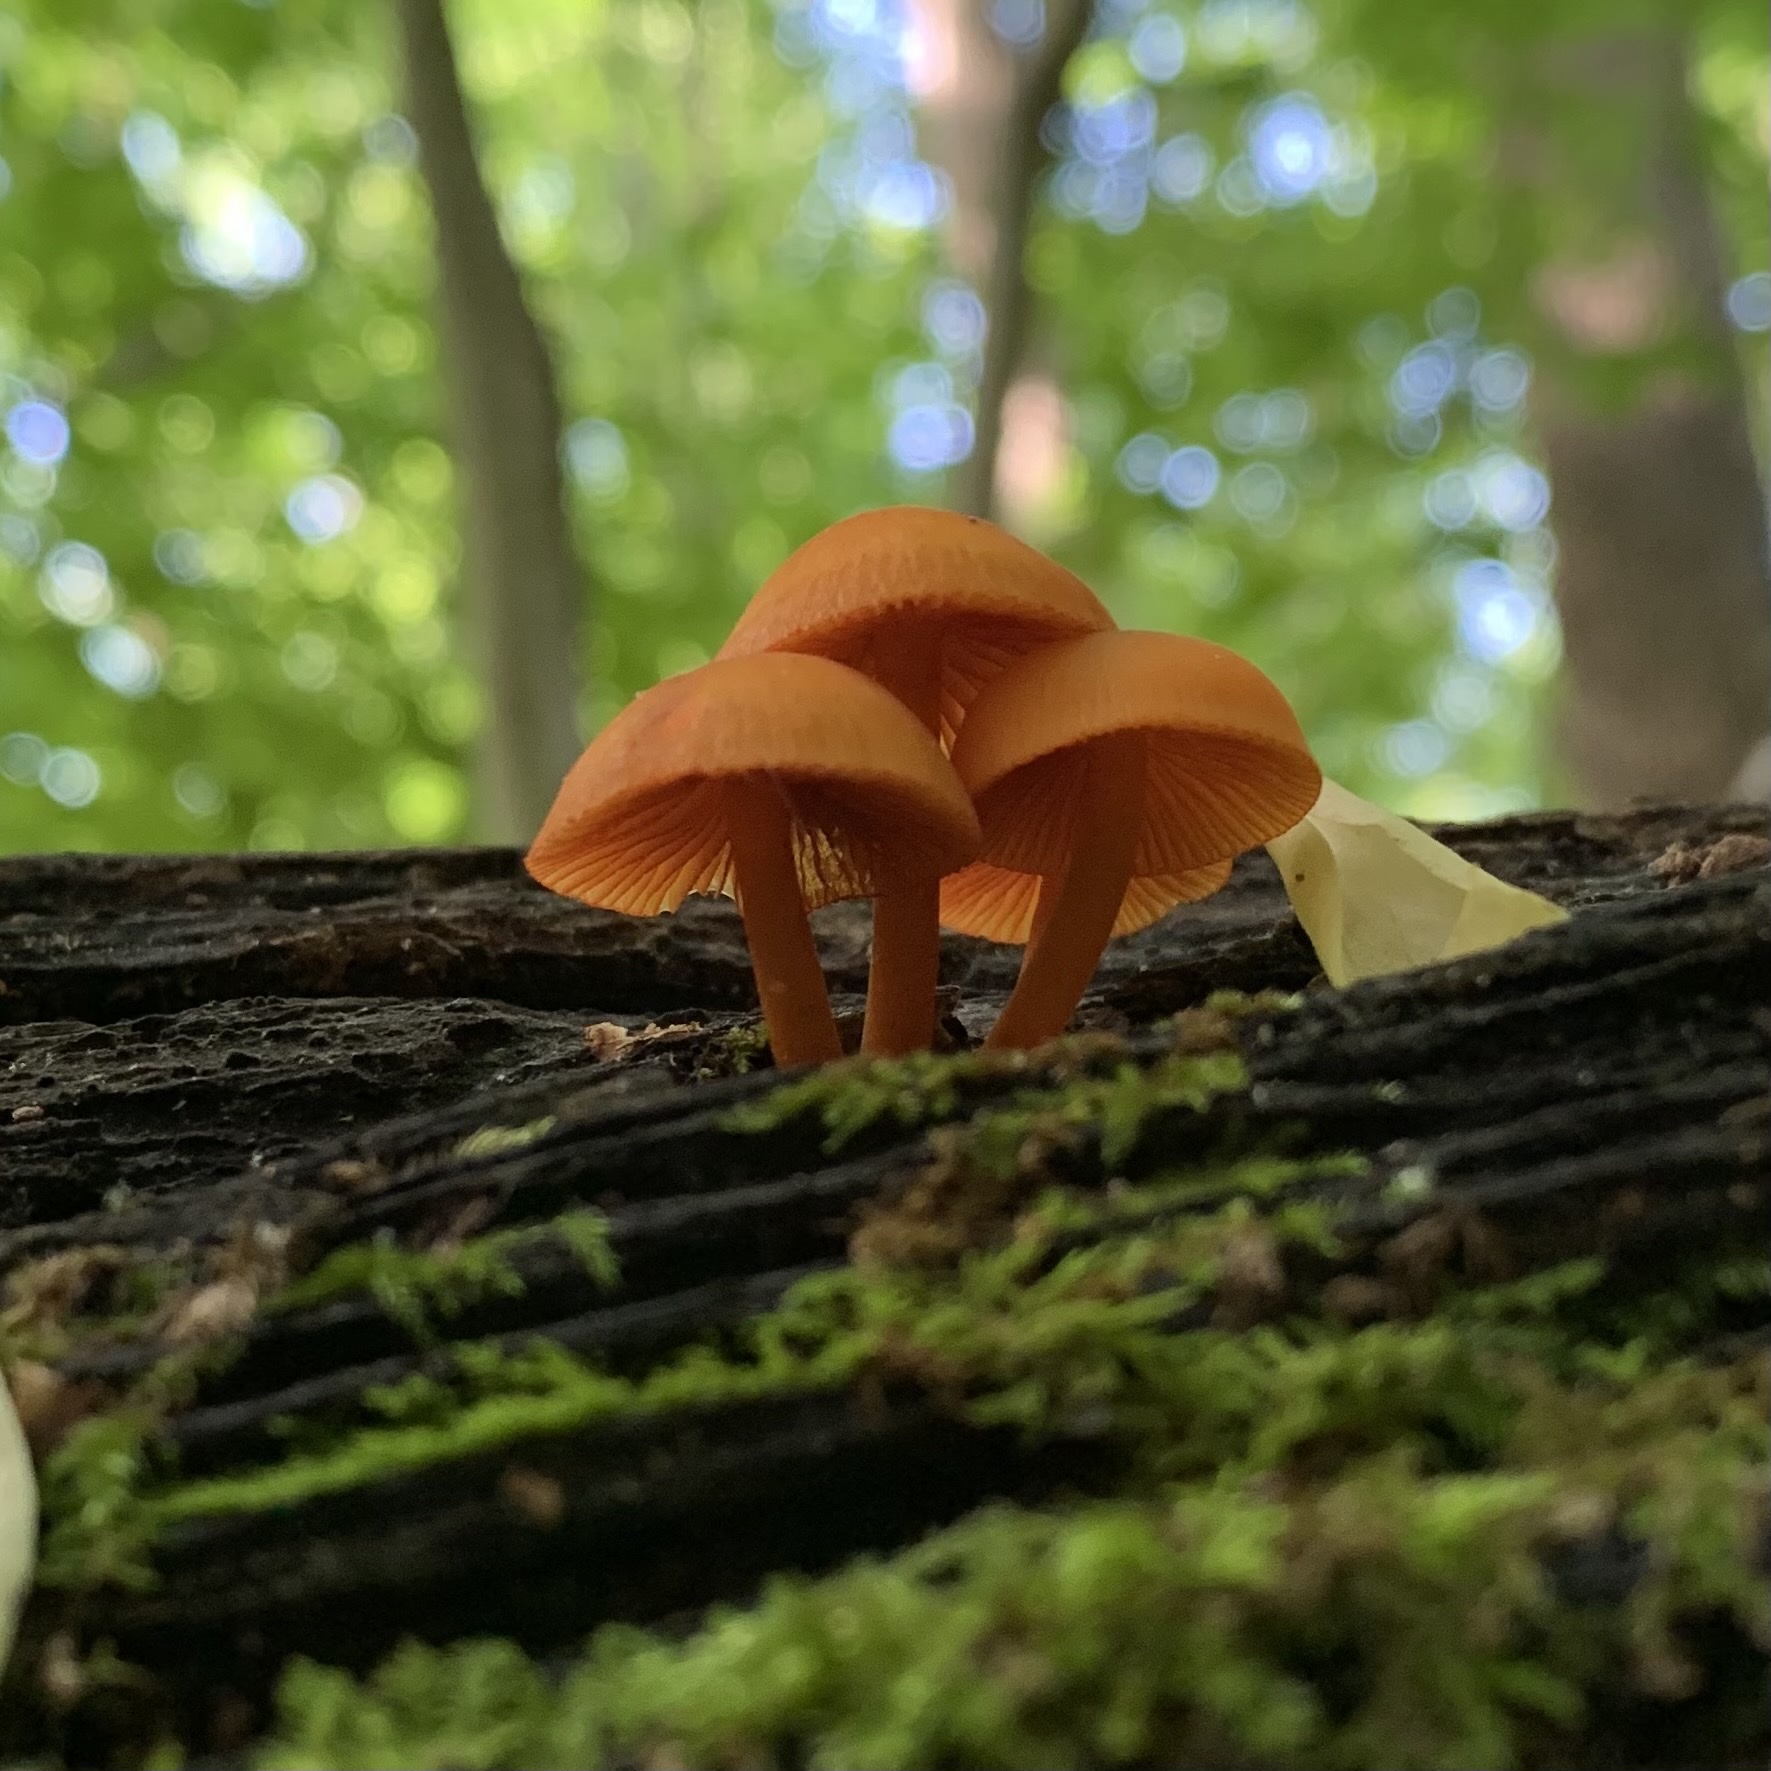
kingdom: Fungi
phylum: Basidiomycota
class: Agaricomycetes
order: Agaricales
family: Mycenaceae
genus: Mycena
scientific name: Mycena leaiana
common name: Orange mycena
